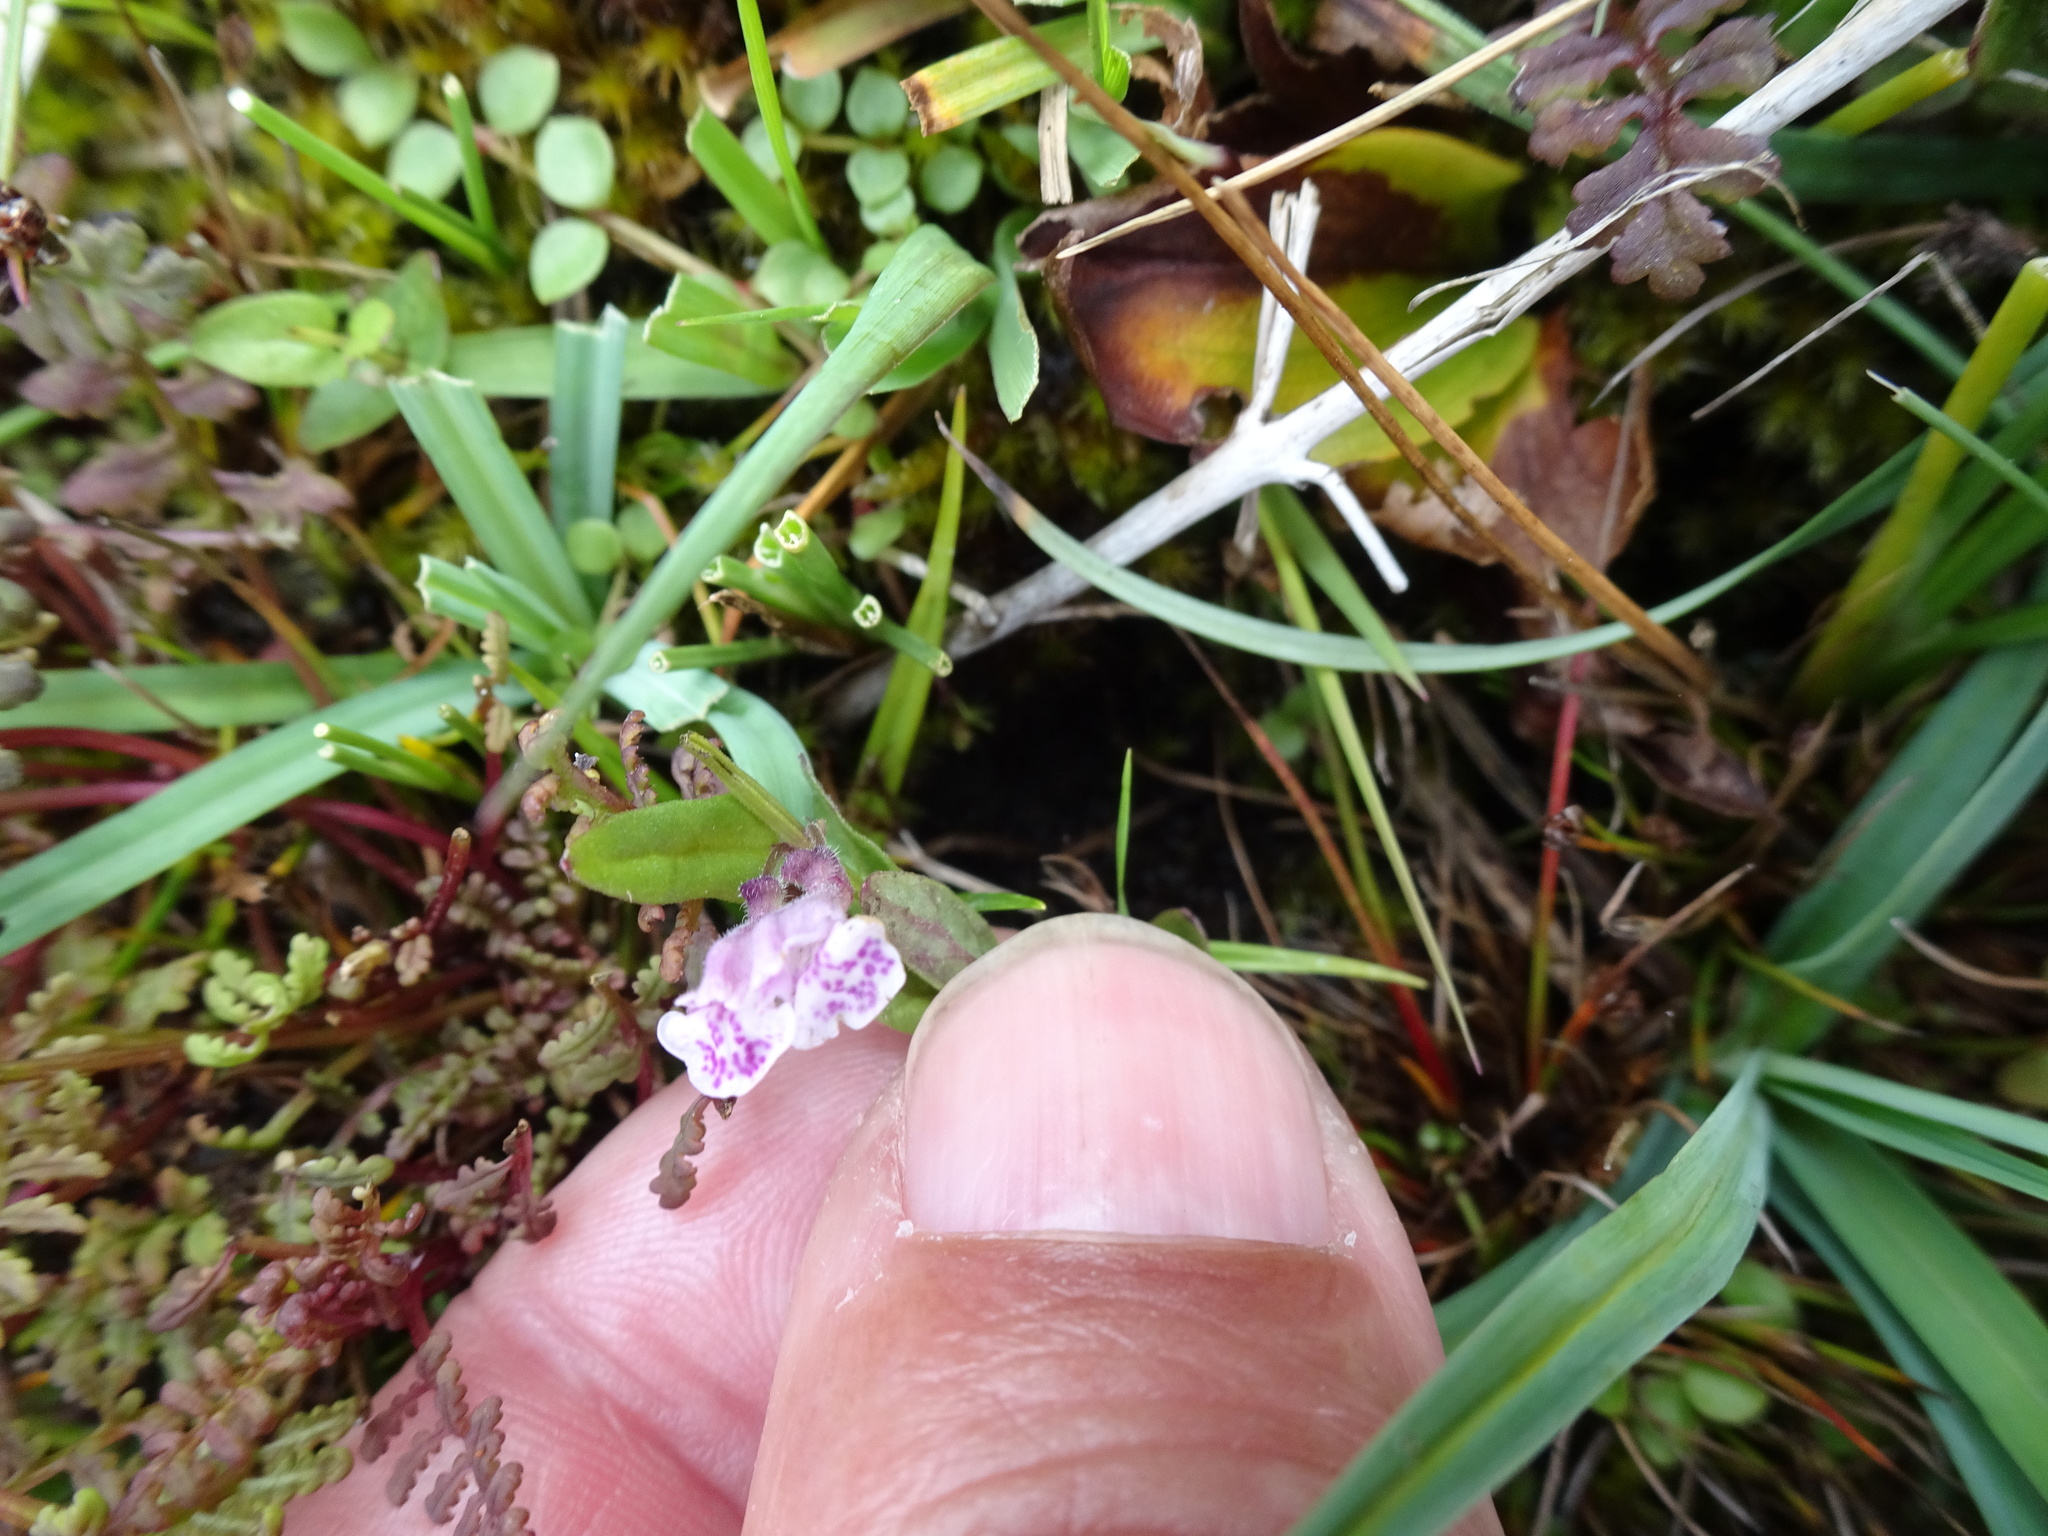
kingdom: Plantae
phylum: Tracheophyta
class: Magnoliopsida
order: Lamiales
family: Lamiaceae
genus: Scutellaria
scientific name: Scutellaria minor
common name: Lesser skullcap
